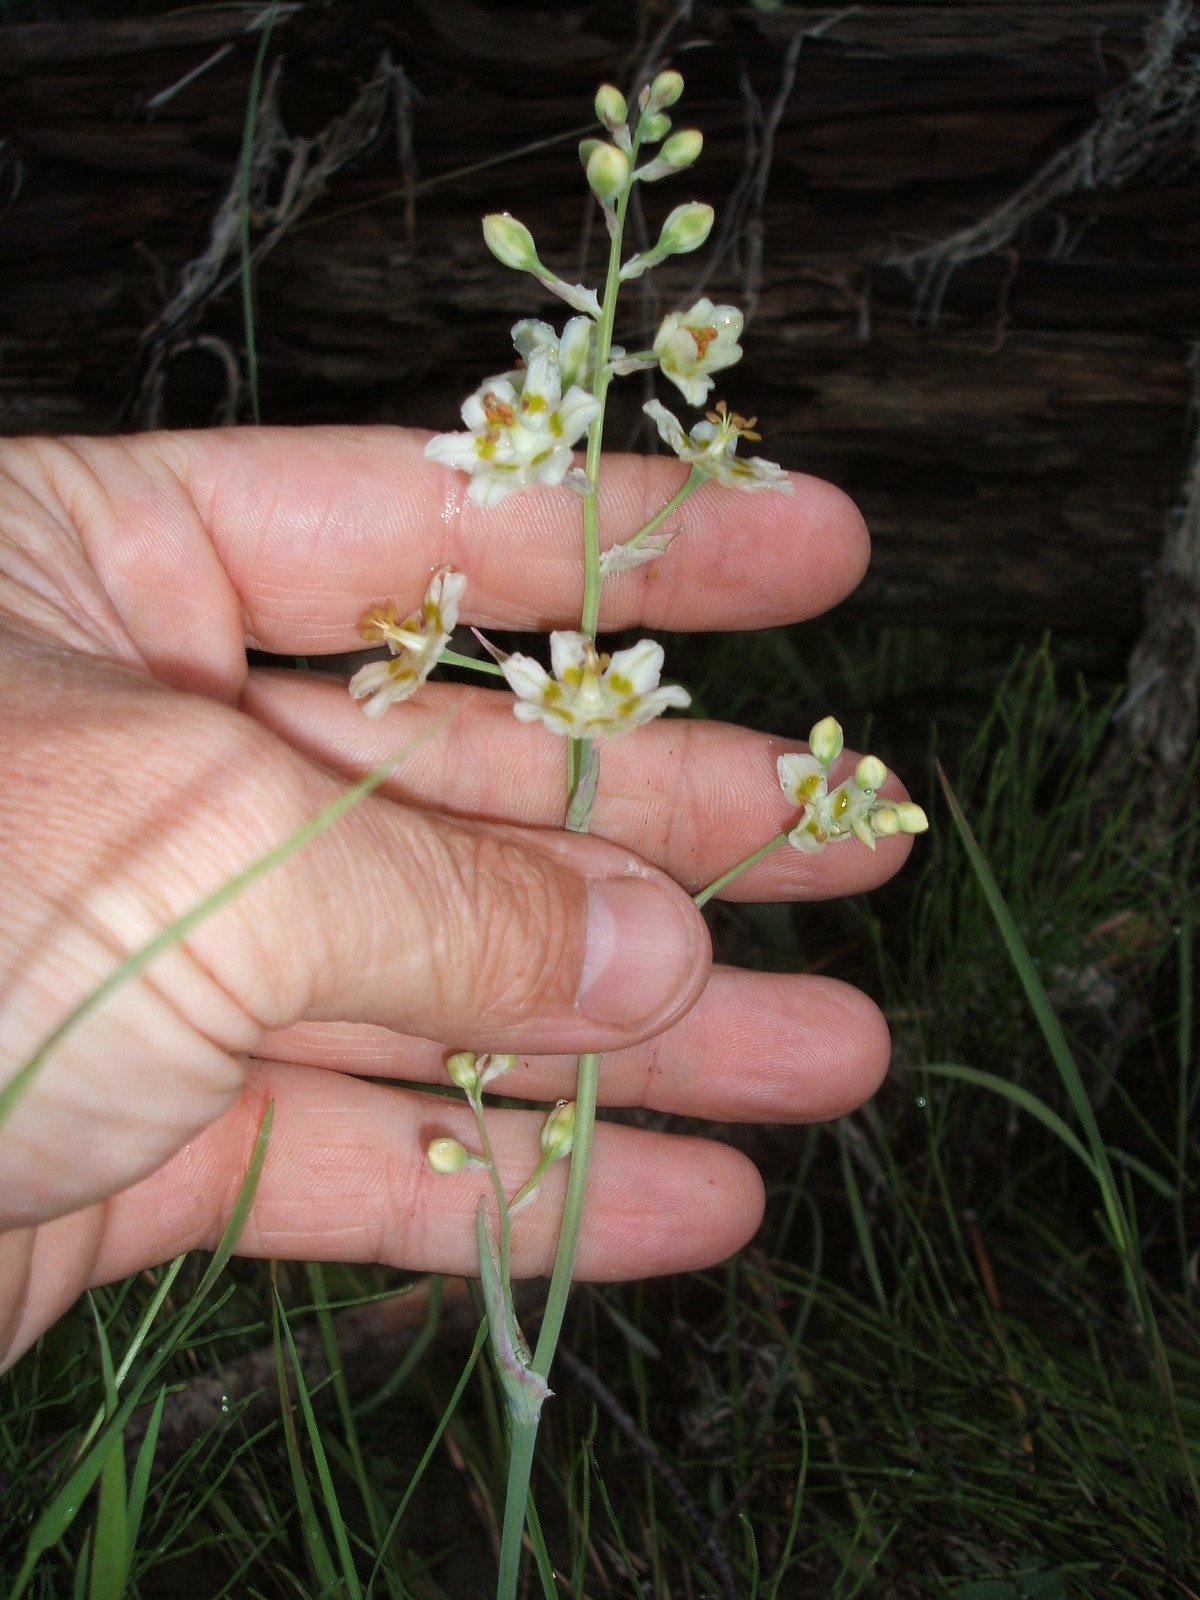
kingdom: Plantae
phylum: Tracheophyta
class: Liliopsida
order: Liliales
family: Melanthiaceae
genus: Anticlea
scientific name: Anticlea elegans
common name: Mountain death camas
